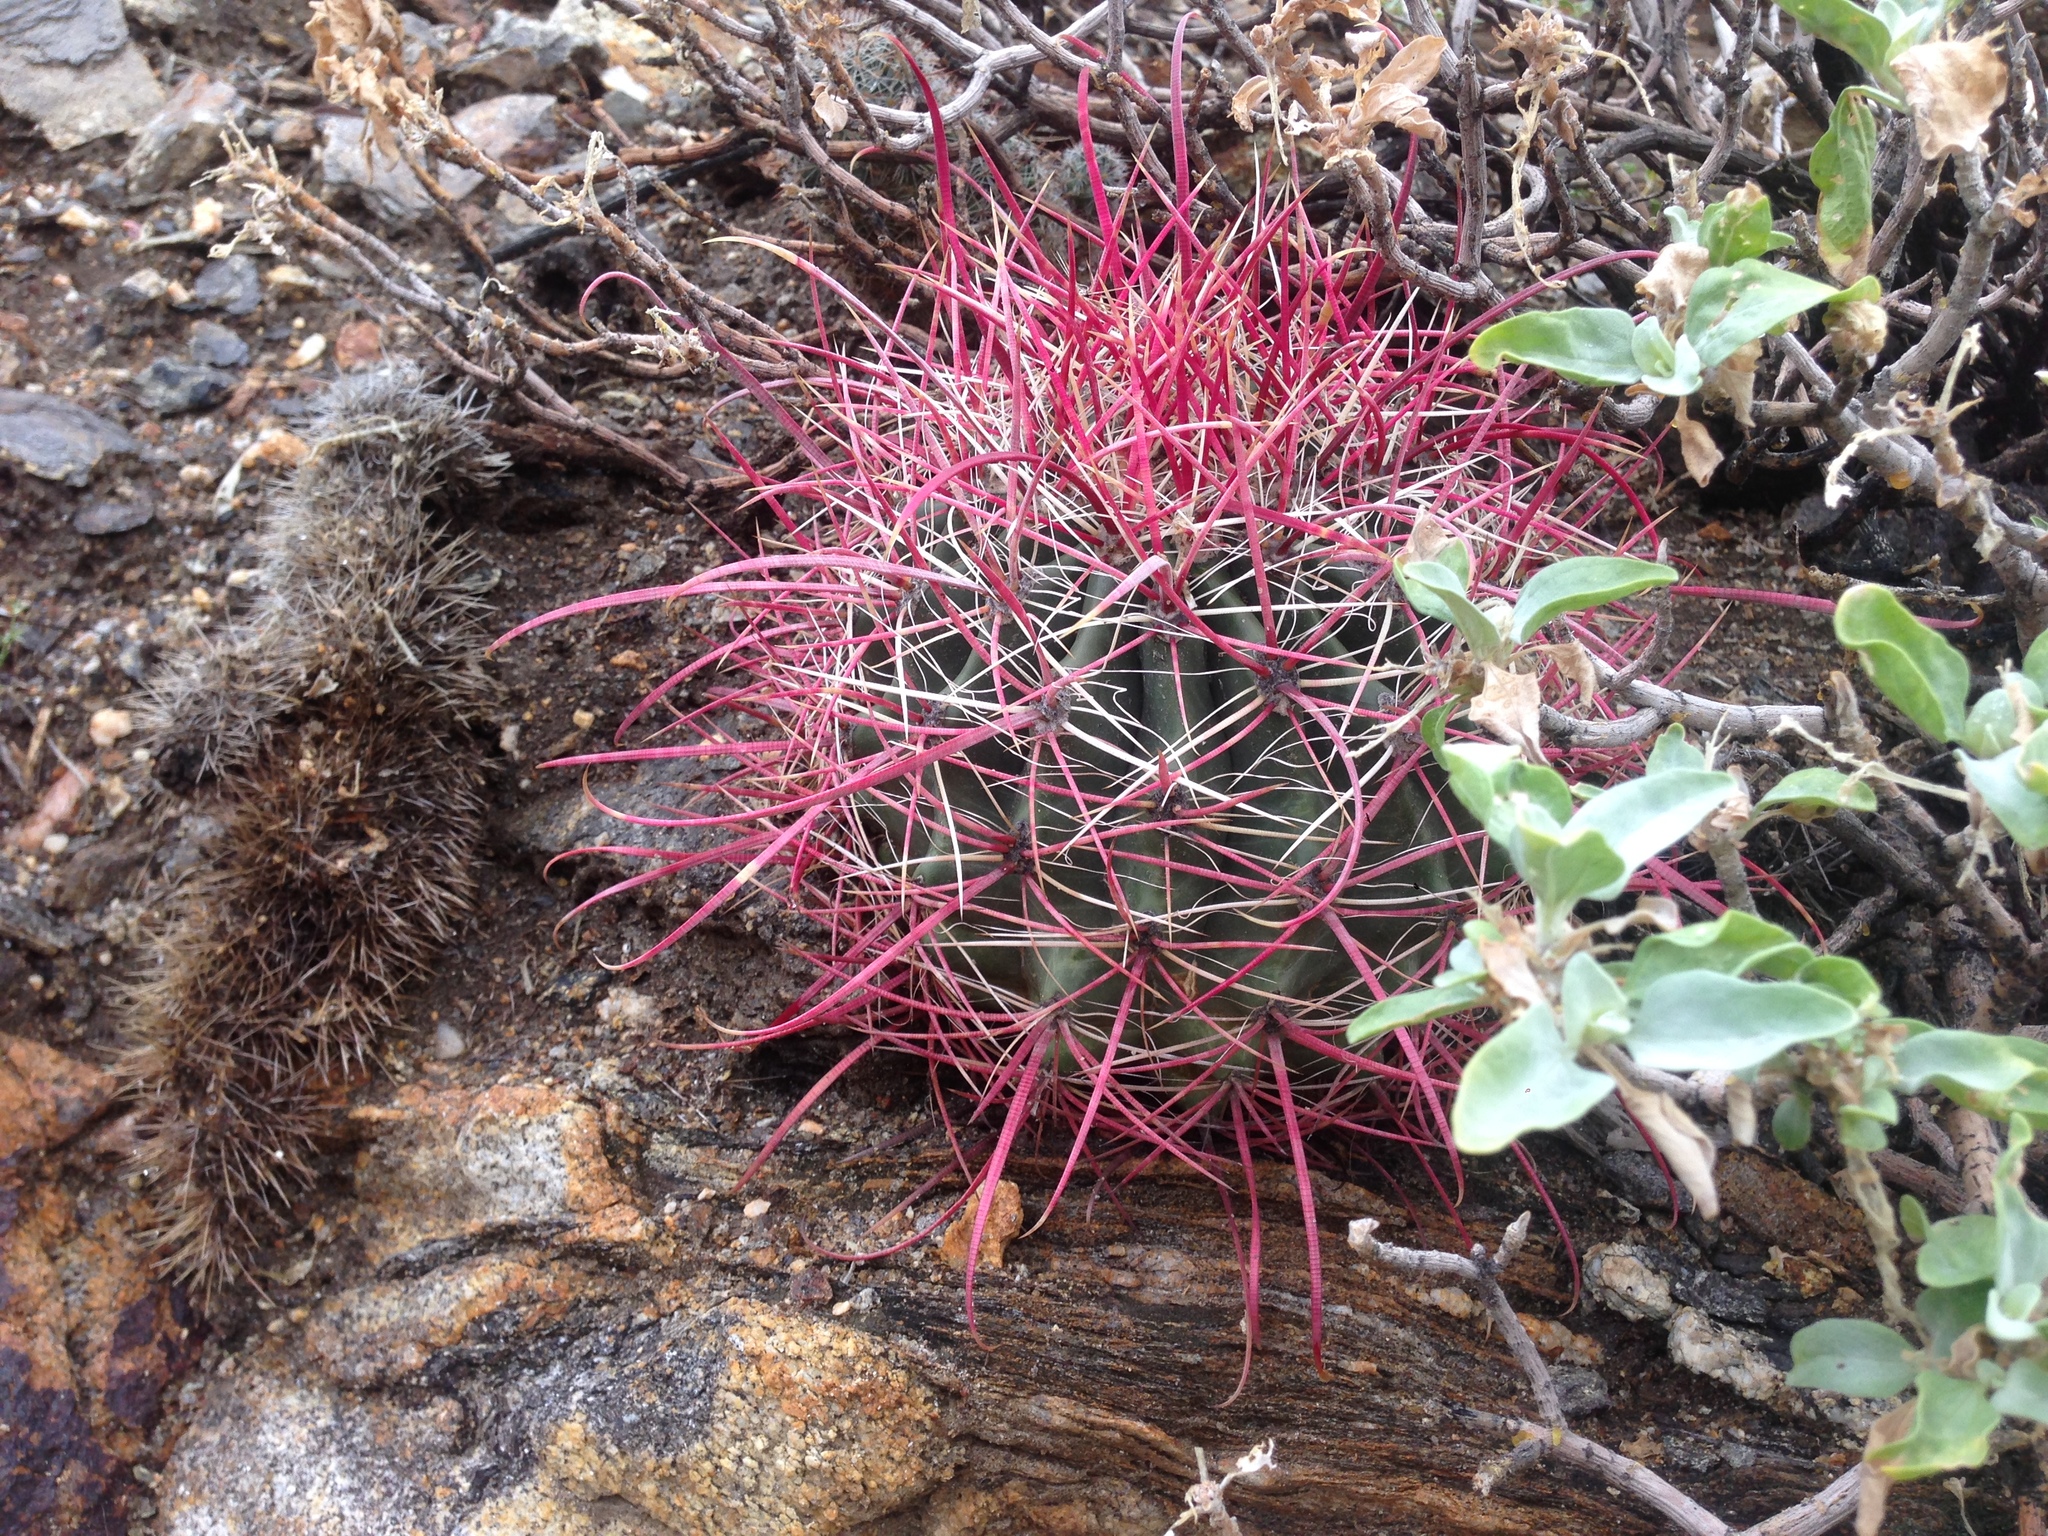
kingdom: Plantae
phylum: Tracheophyta
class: Magnoliopsida
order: Caryophyllales
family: Cactaceae
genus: Ferocactus
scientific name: Ferocactus cylindraceus
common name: California barrel cactus
